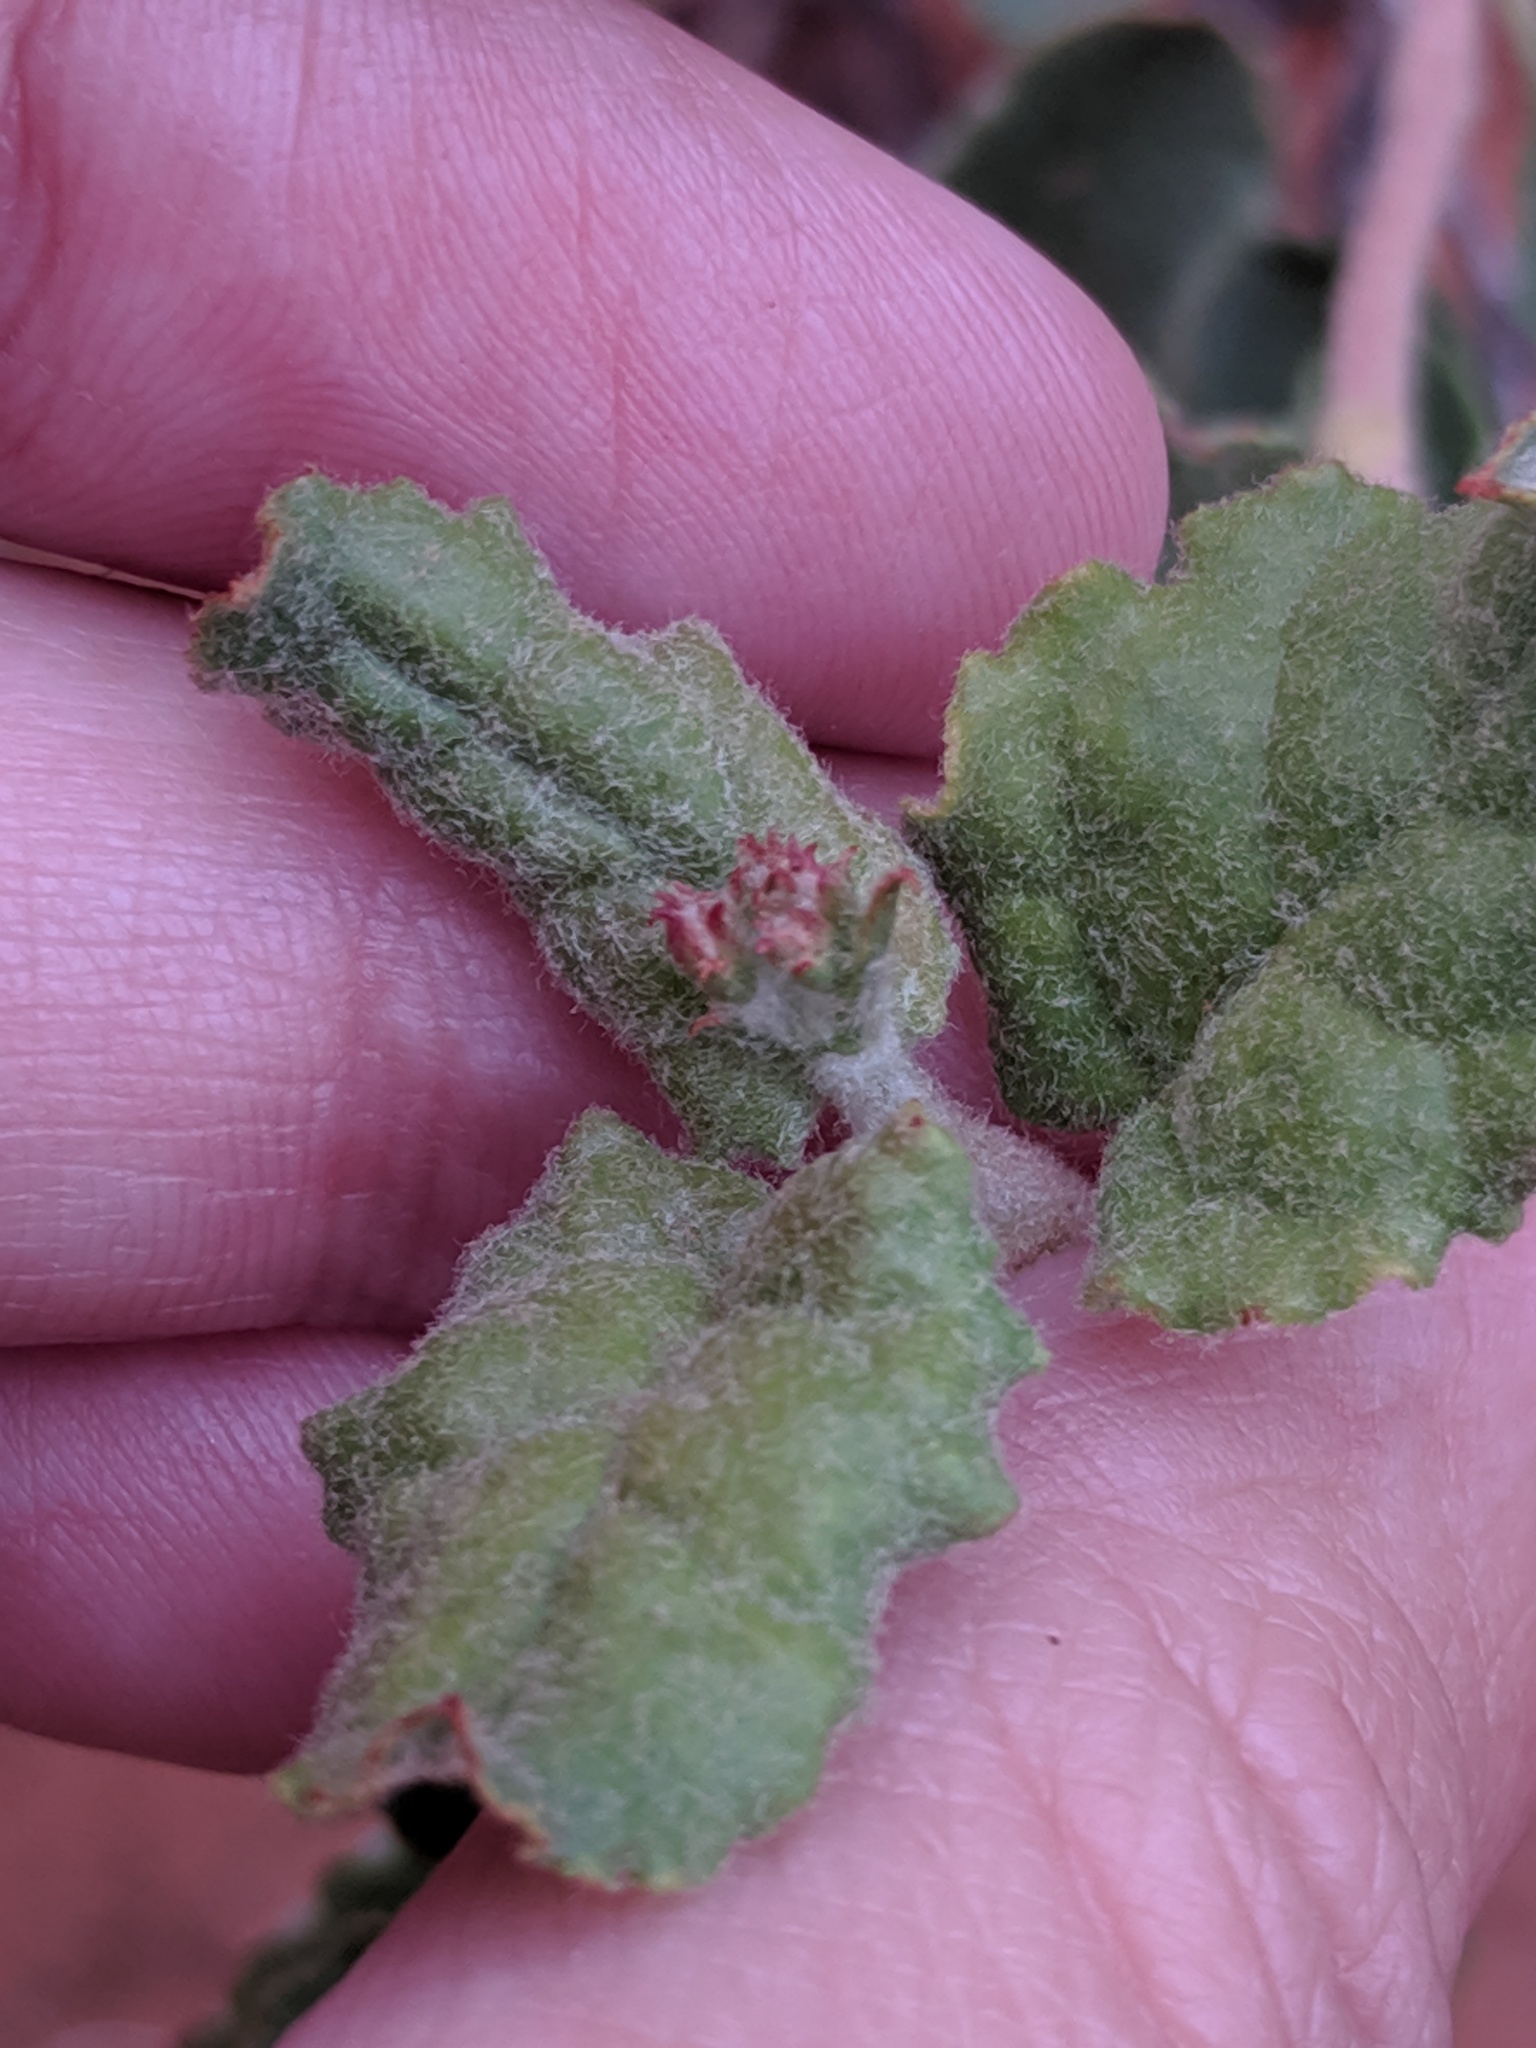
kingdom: Plantae
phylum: Tracheophyta
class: Magnoliopsida
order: Caryophyllales
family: Polygonaceae
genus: Eriogonum
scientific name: Eriogonum corymbosum
